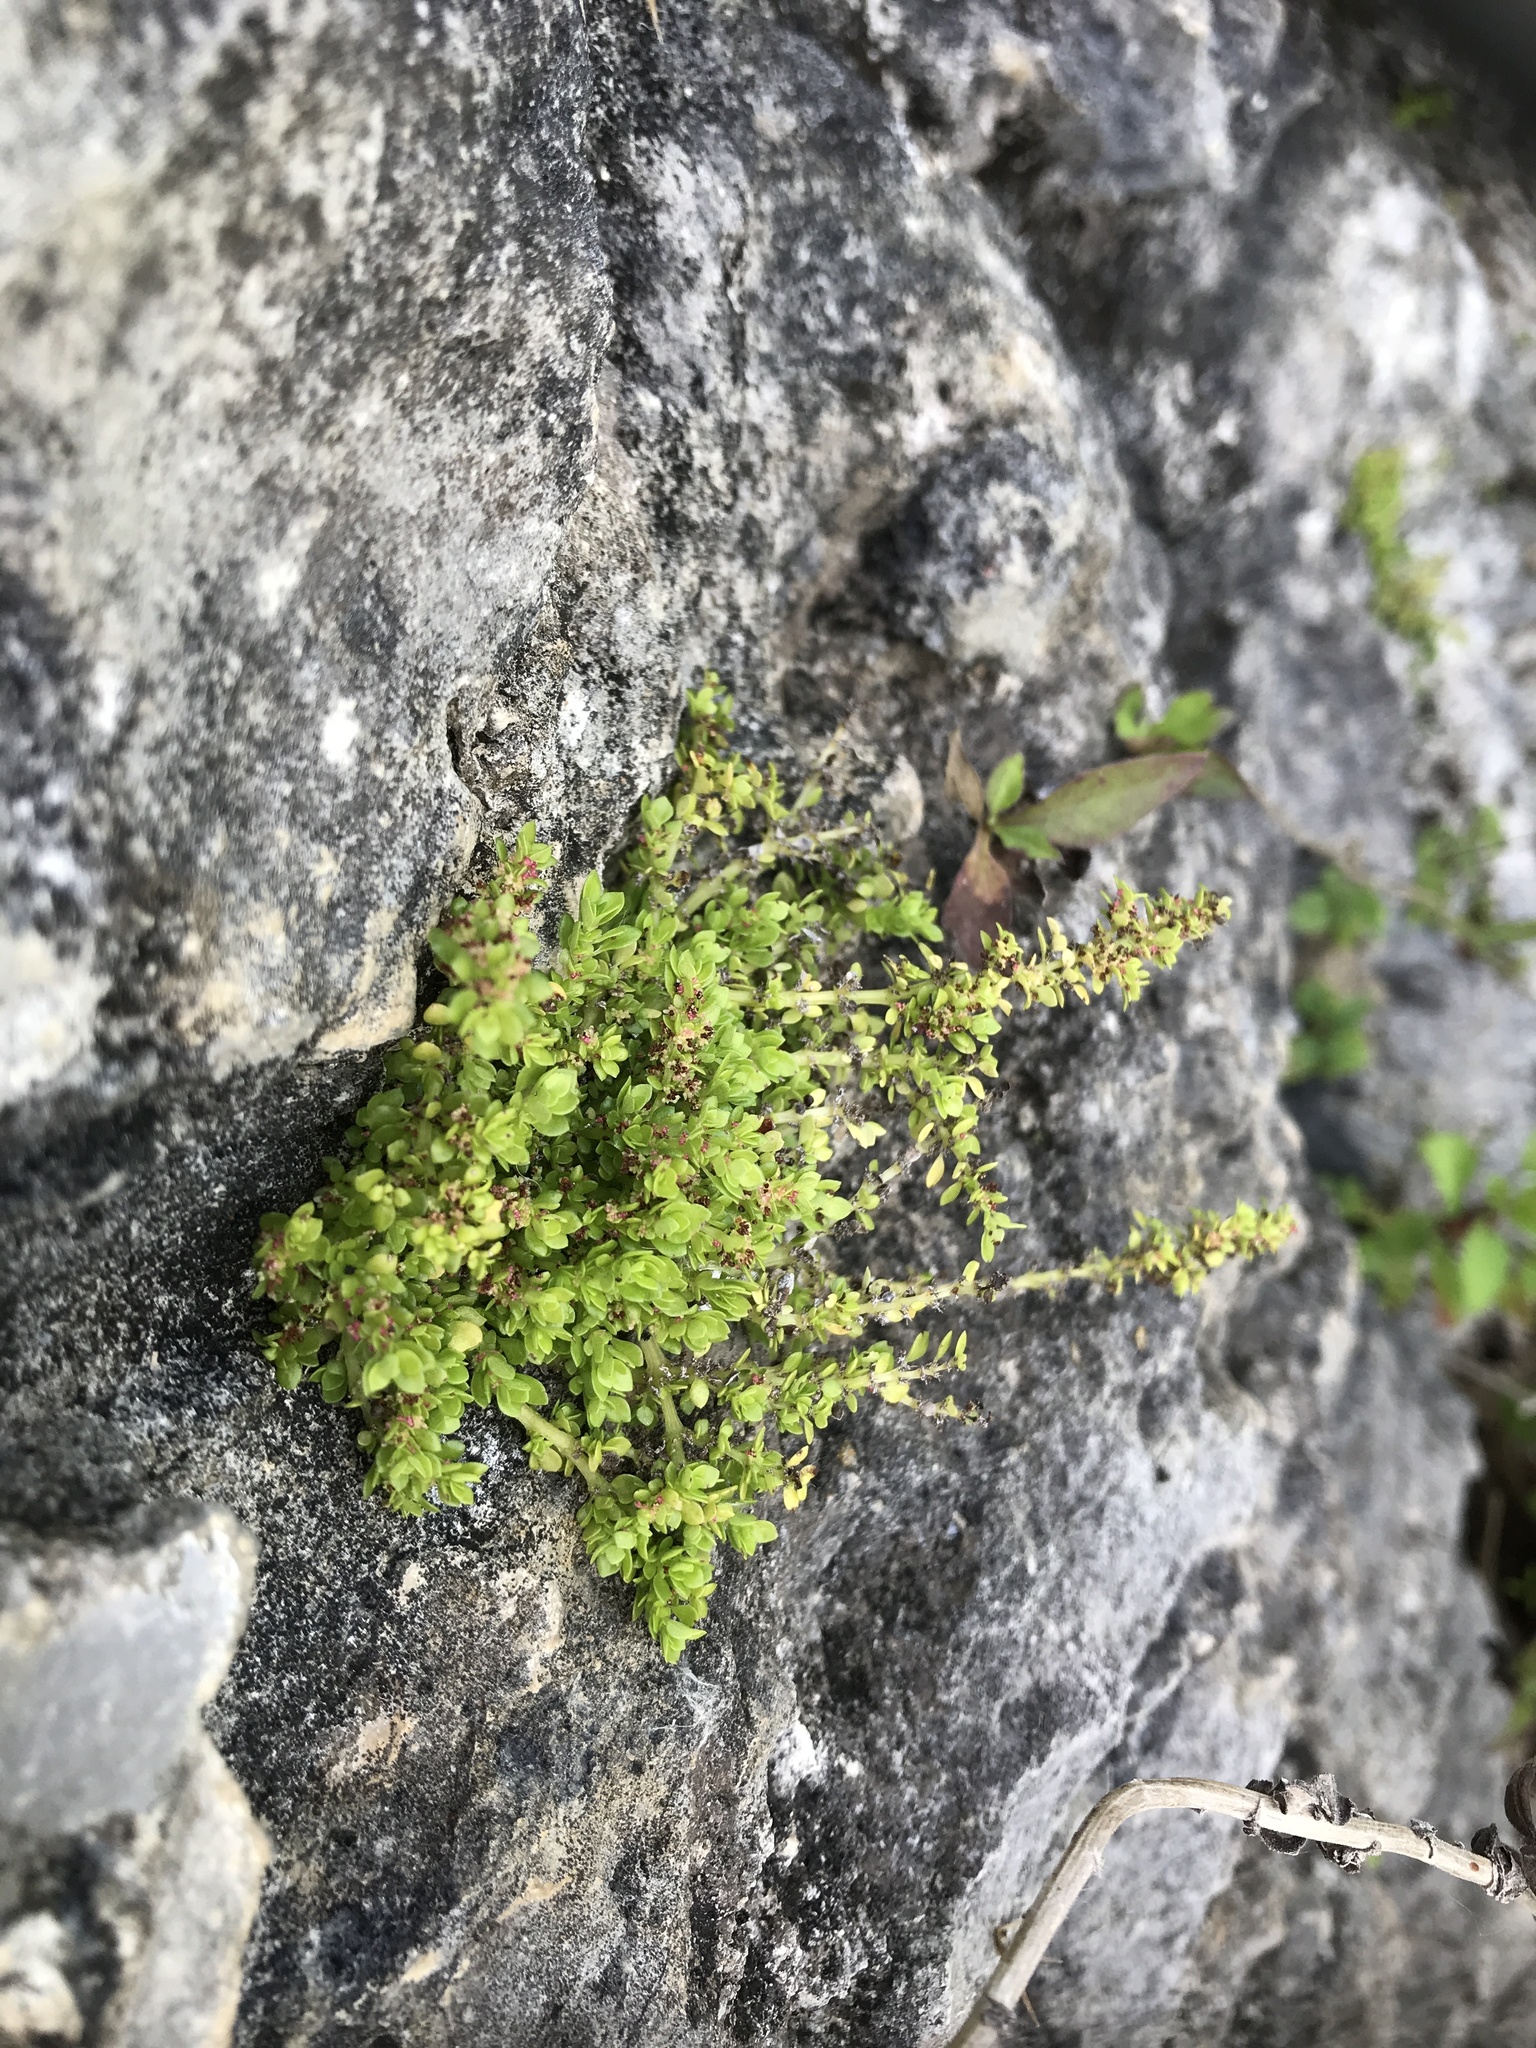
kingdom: Plantae
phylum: Tracheophyta
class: Magnoliopsida
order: Rosales
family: Urticaceae
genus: Pilea
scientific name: Pilea microphylla
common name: Artillery-plant
